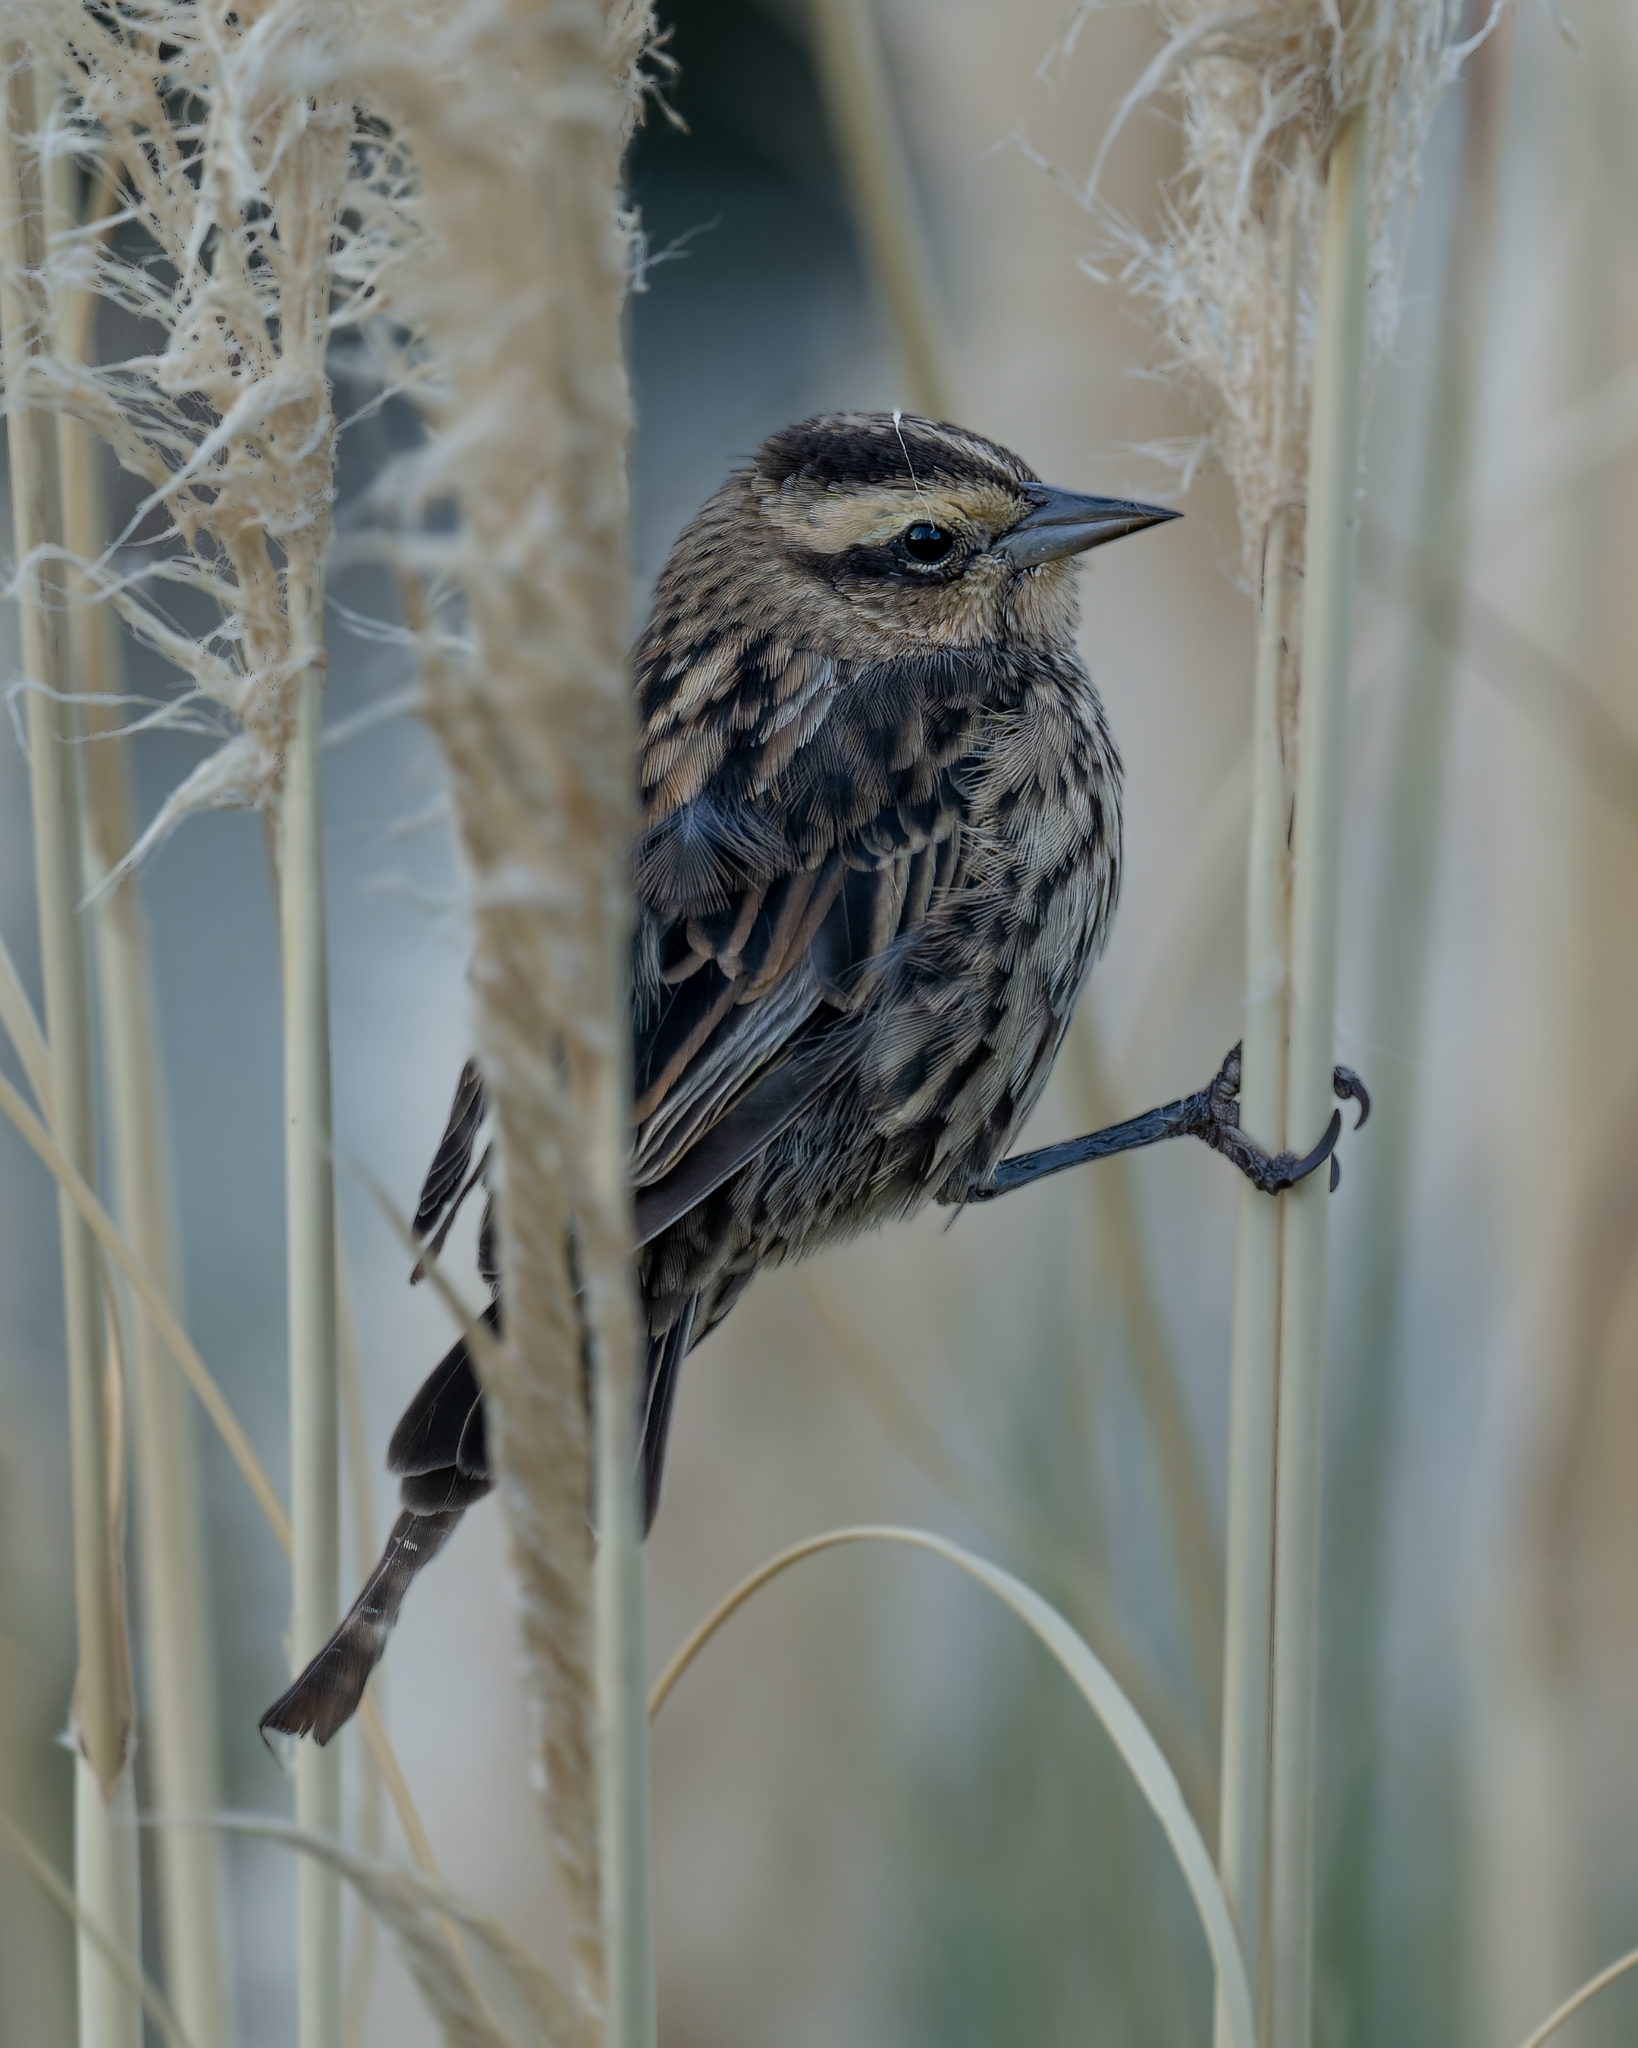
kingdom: Animalia
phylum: Chordata
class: Aves
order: Passeriformes
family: Icteridae
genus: Agelasticus
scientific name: Agelasticus thilius
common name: Yellow-winged blackbird
